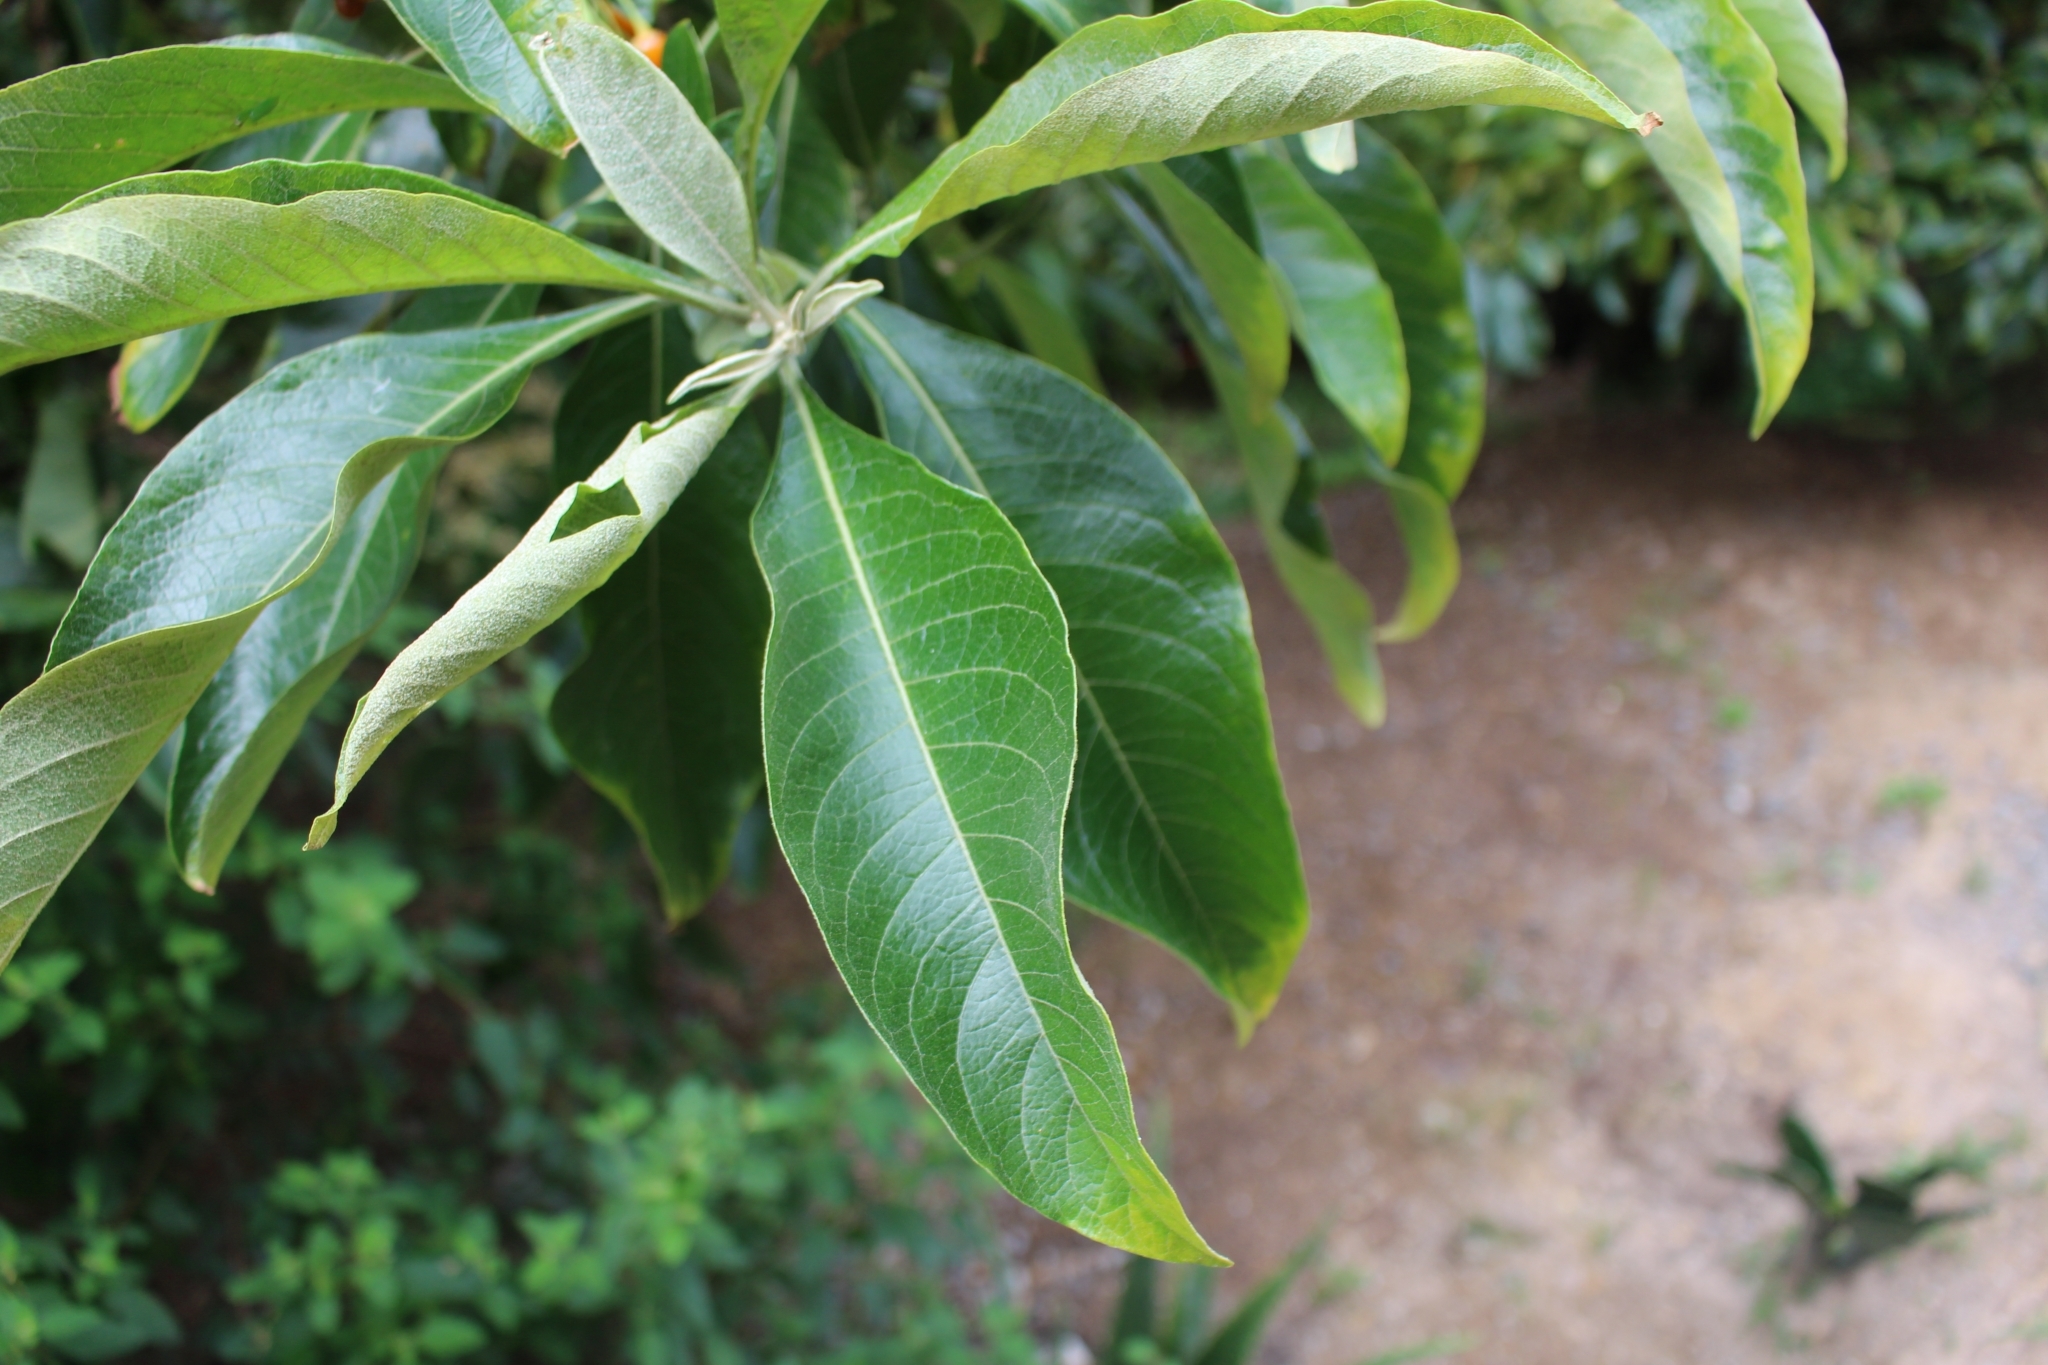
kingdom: Plantae
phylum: Tracheophyta
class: Magnoliopsida
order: Solanales
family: Solanaceae
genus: Iochroma
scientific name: Iochroma arborescens
